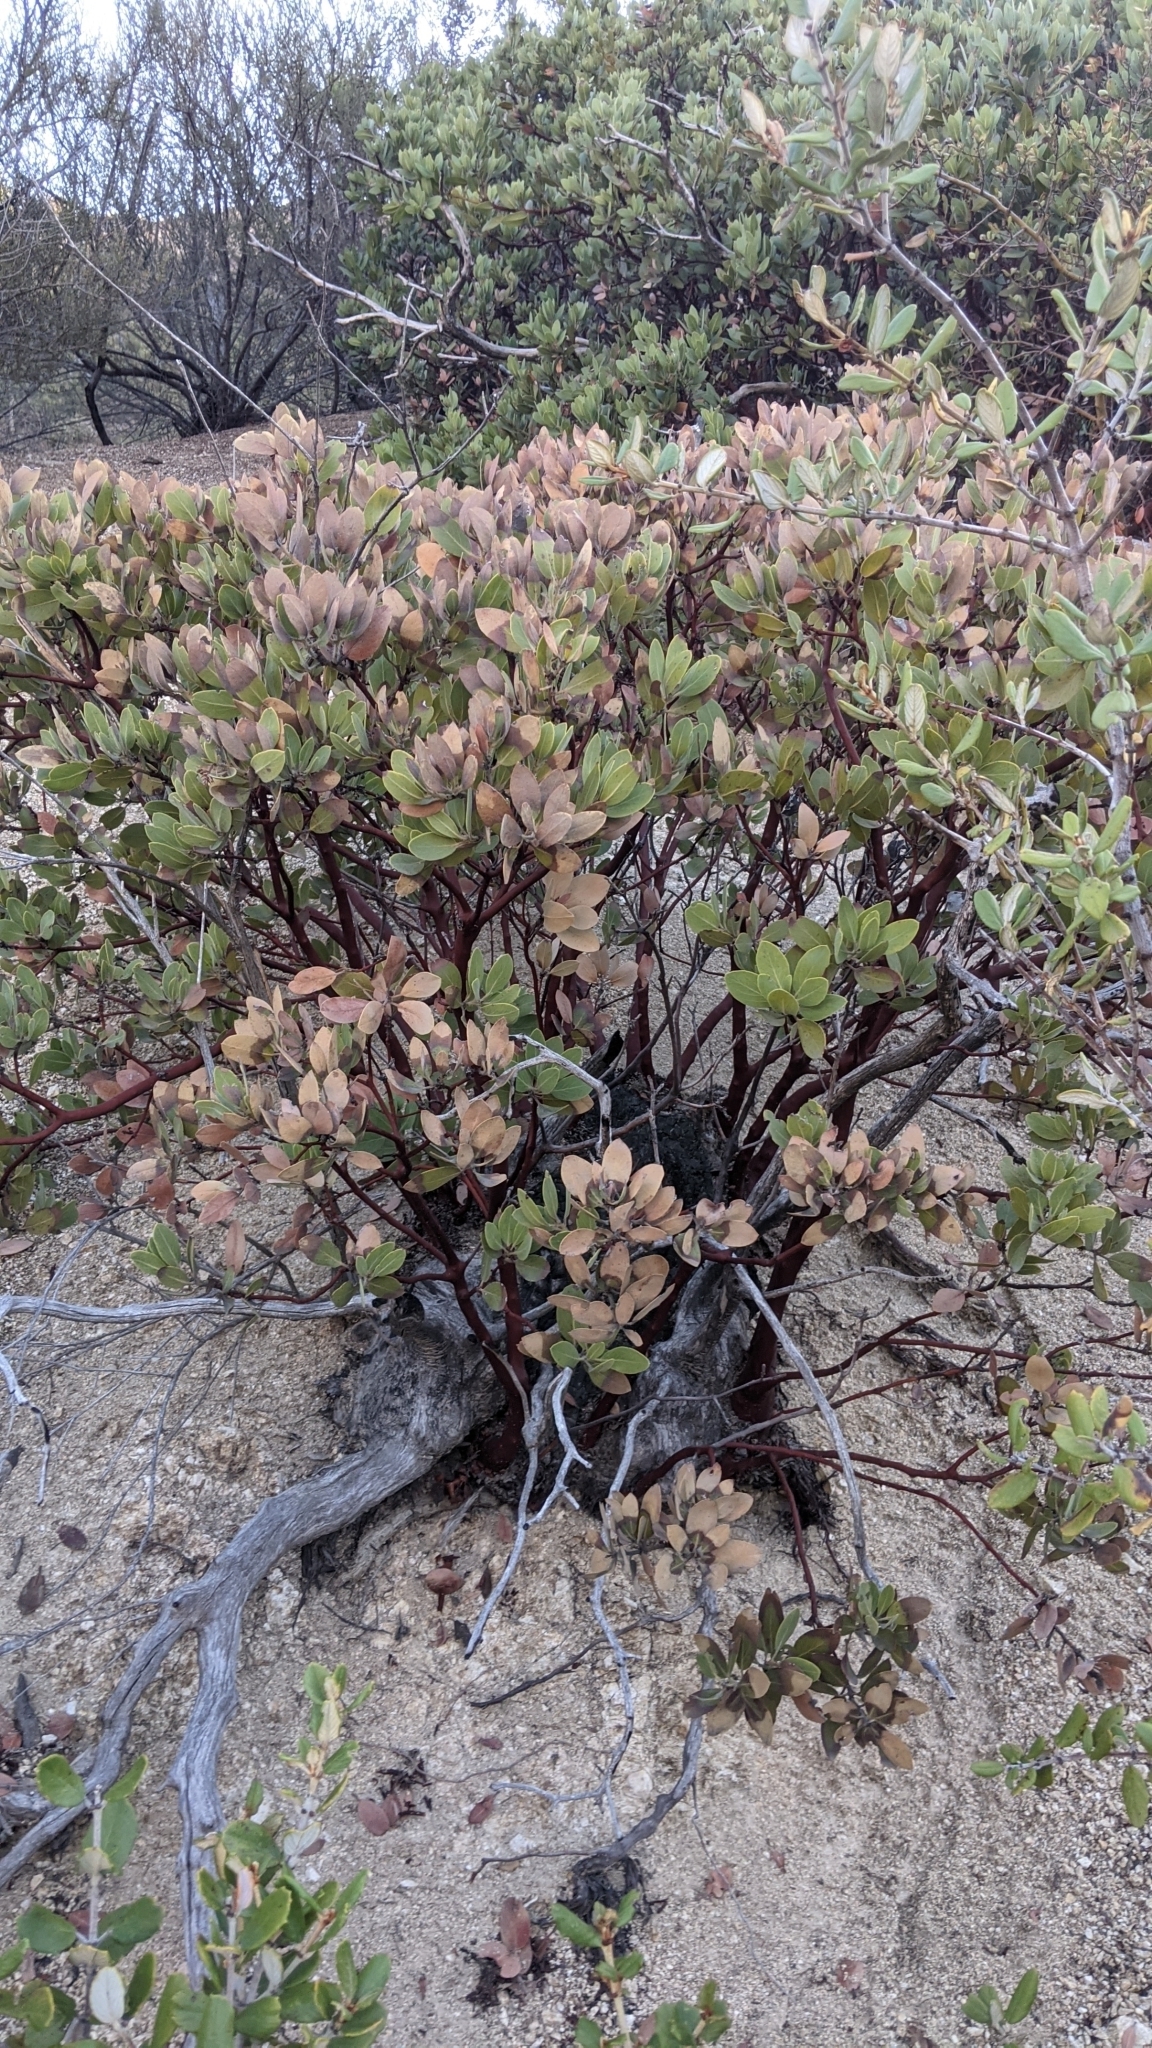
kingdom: Plantae
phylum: Tracheophyta
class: Magnoliopsida
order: Ericales
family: Ericaceae
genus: Arctostaphylos
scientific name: Arctostaphylos glandulosa
